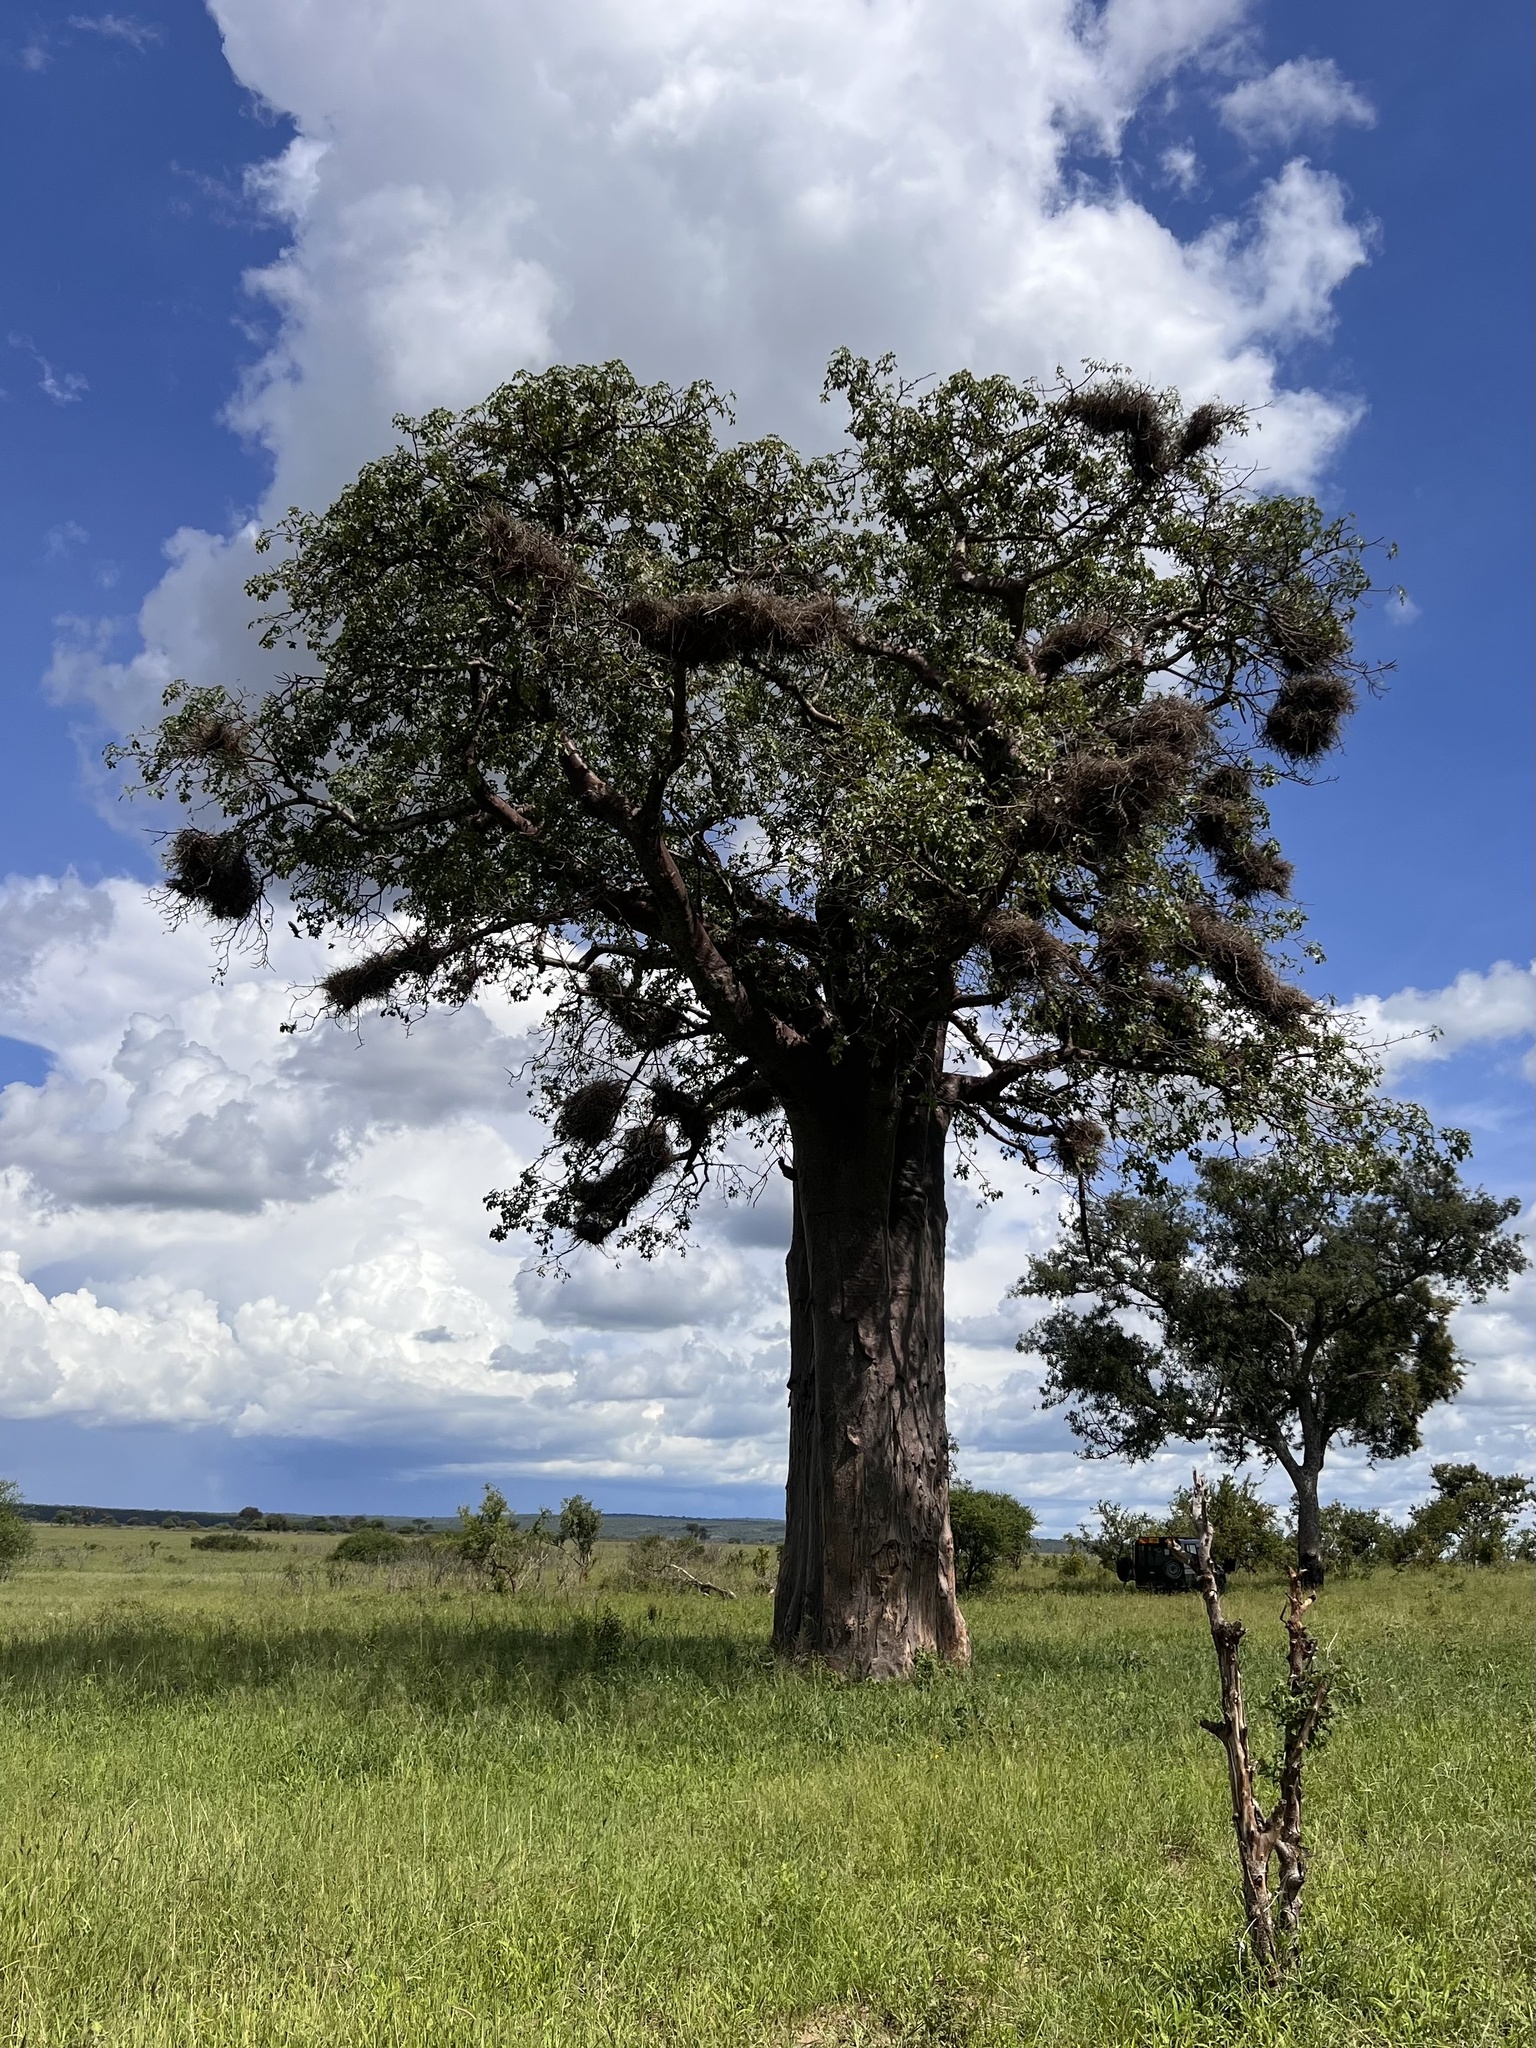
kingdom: Animalia
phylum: Chordata
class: Aves
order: Passeriformes
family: Ploceidae
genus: Bubalornis
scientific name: Bubalornis niger
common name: Red-billed buffalo weaver
